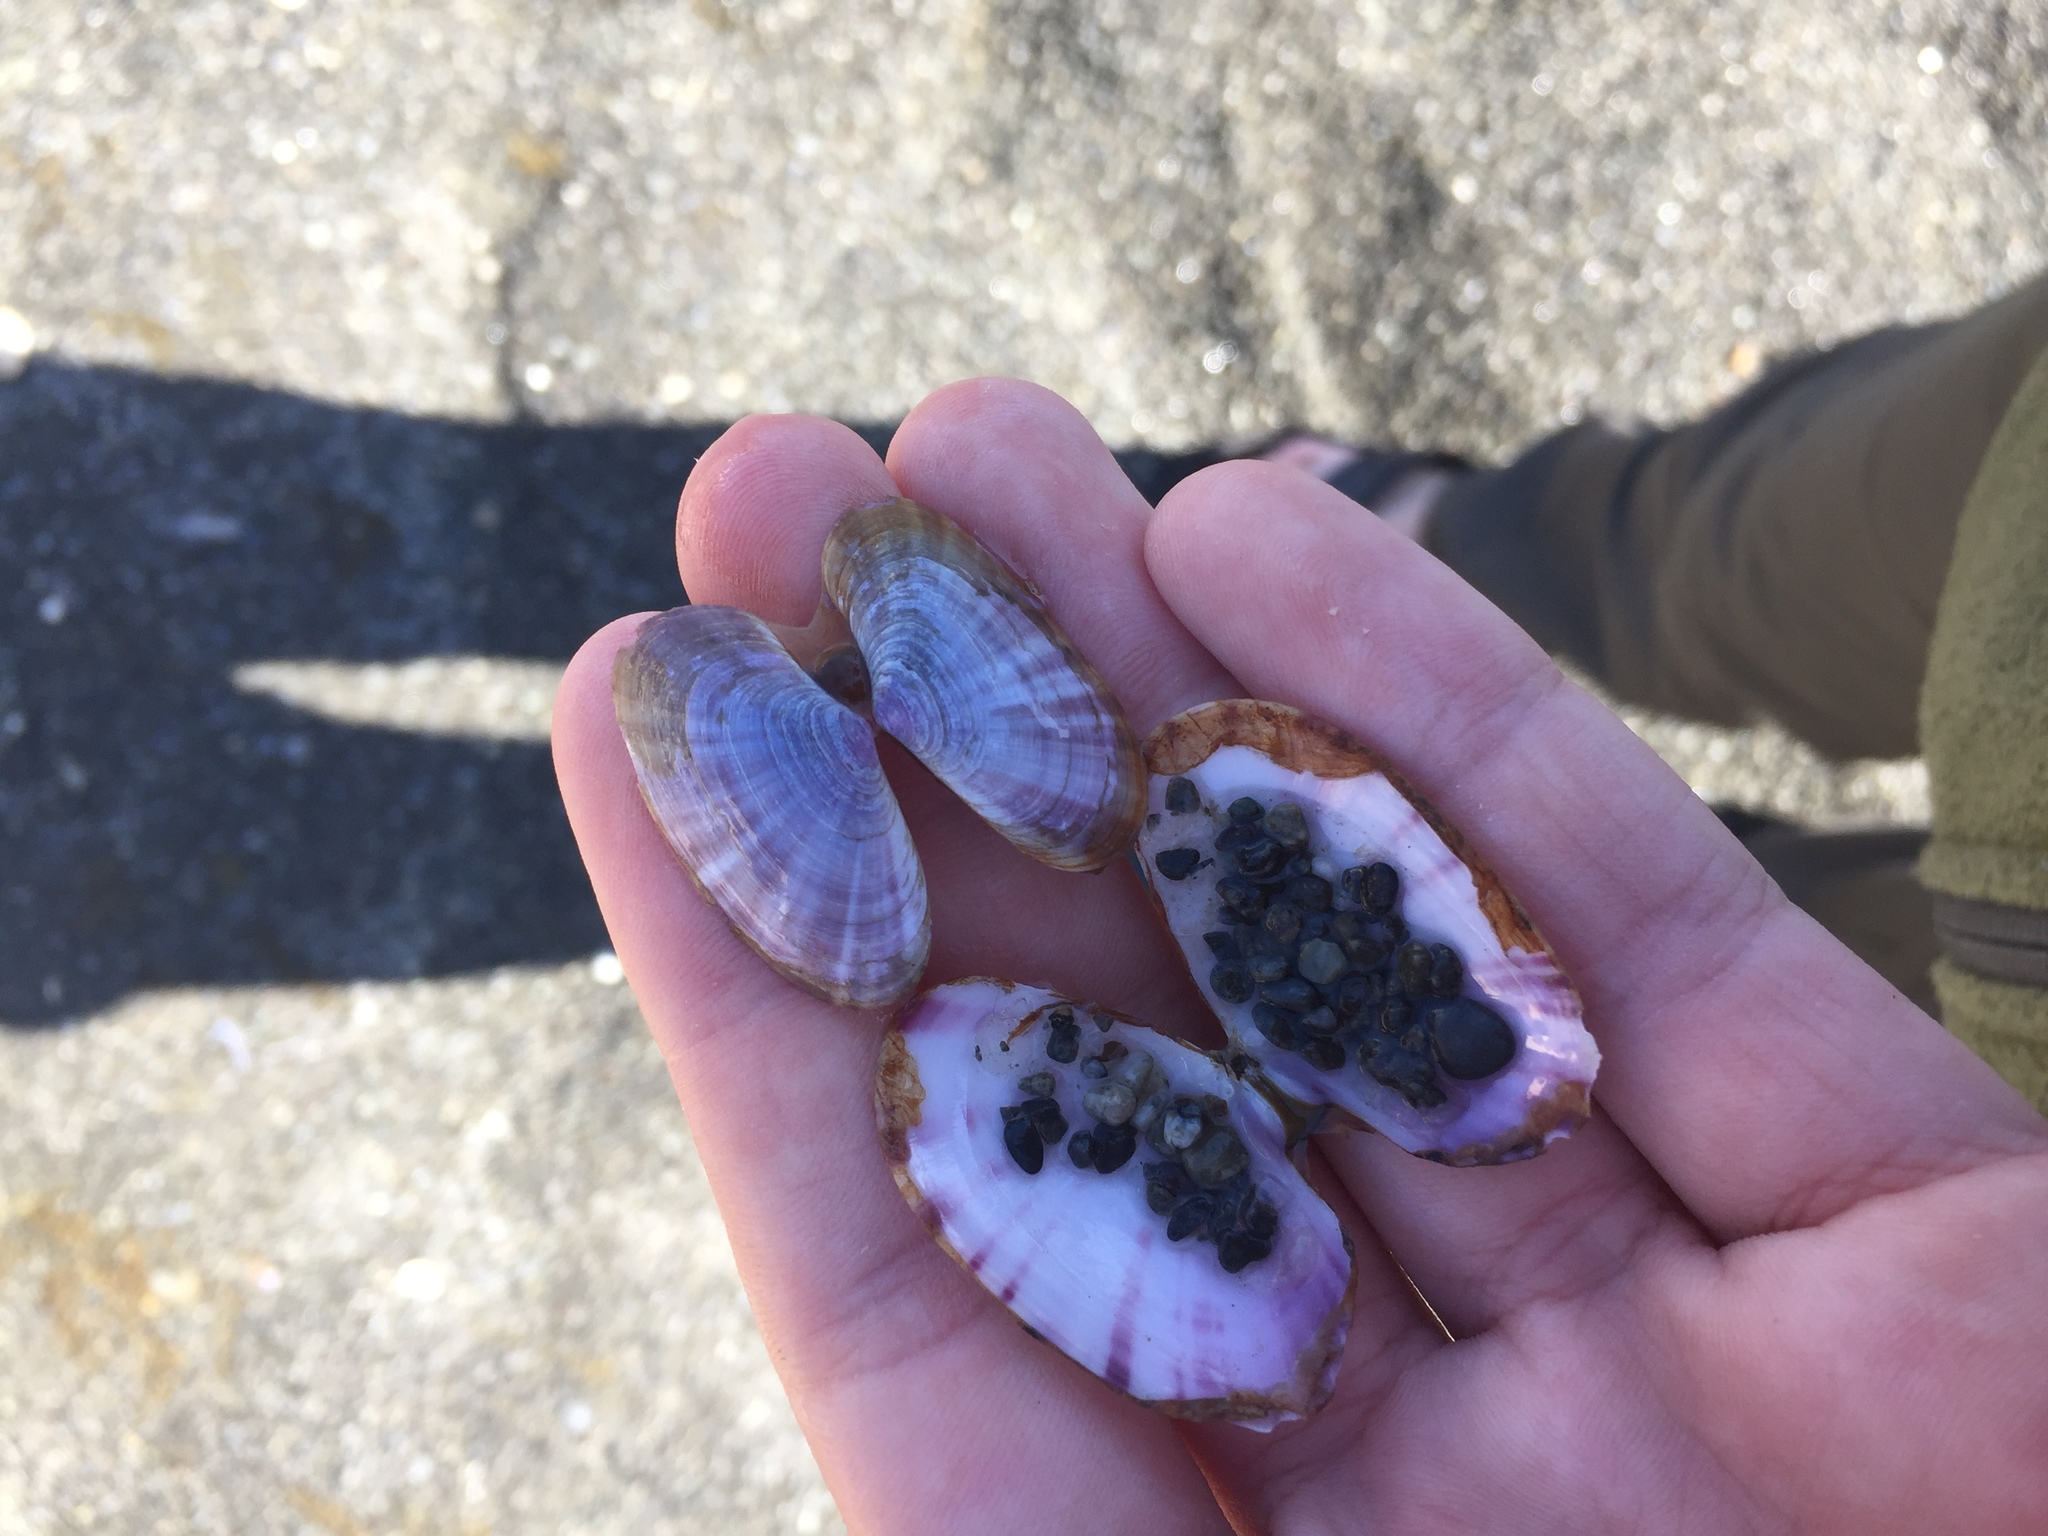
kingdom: Animalia
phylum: Mollusca
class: Bivalvia
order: Cardiida
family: Psammobiidae
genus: Gari
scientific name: Gari stangeri
